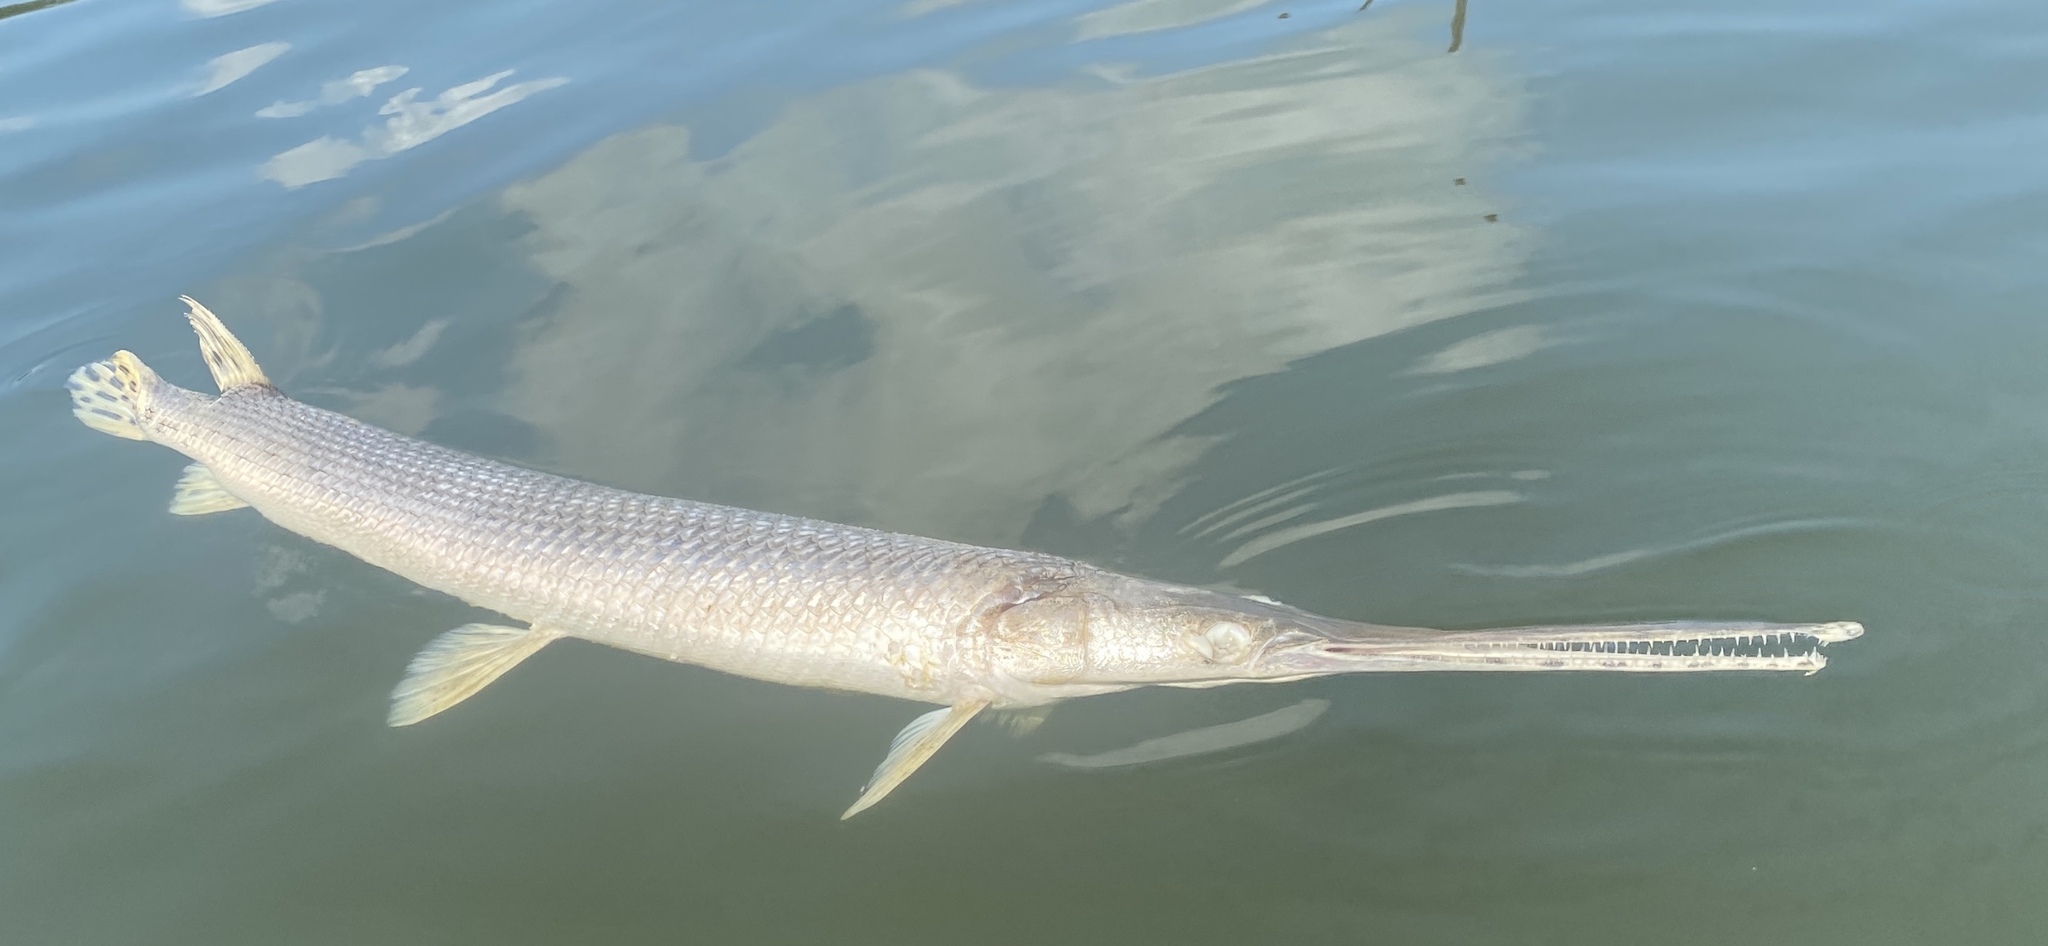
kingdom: Animalia
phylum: Chordata
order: Lepisosteiformes
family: Lepisosteidae
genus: Lepisosteus
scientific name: Lepisosteus osseus
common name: Longnose gar
